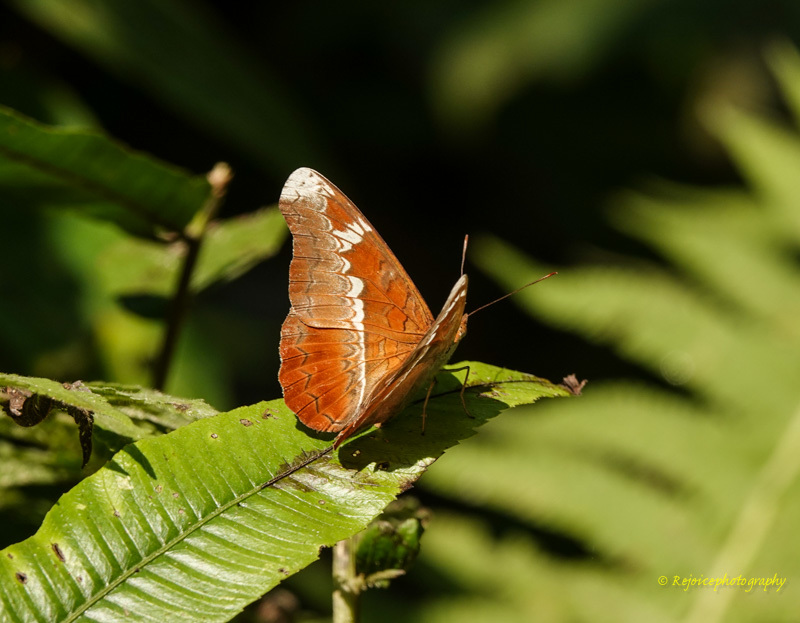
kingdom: Animalia
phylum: Arthropoda
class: Insecta
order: Lepidoptera
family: Nymphalidae
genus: Lebadea
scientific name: Lebadea martha
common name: Knight
